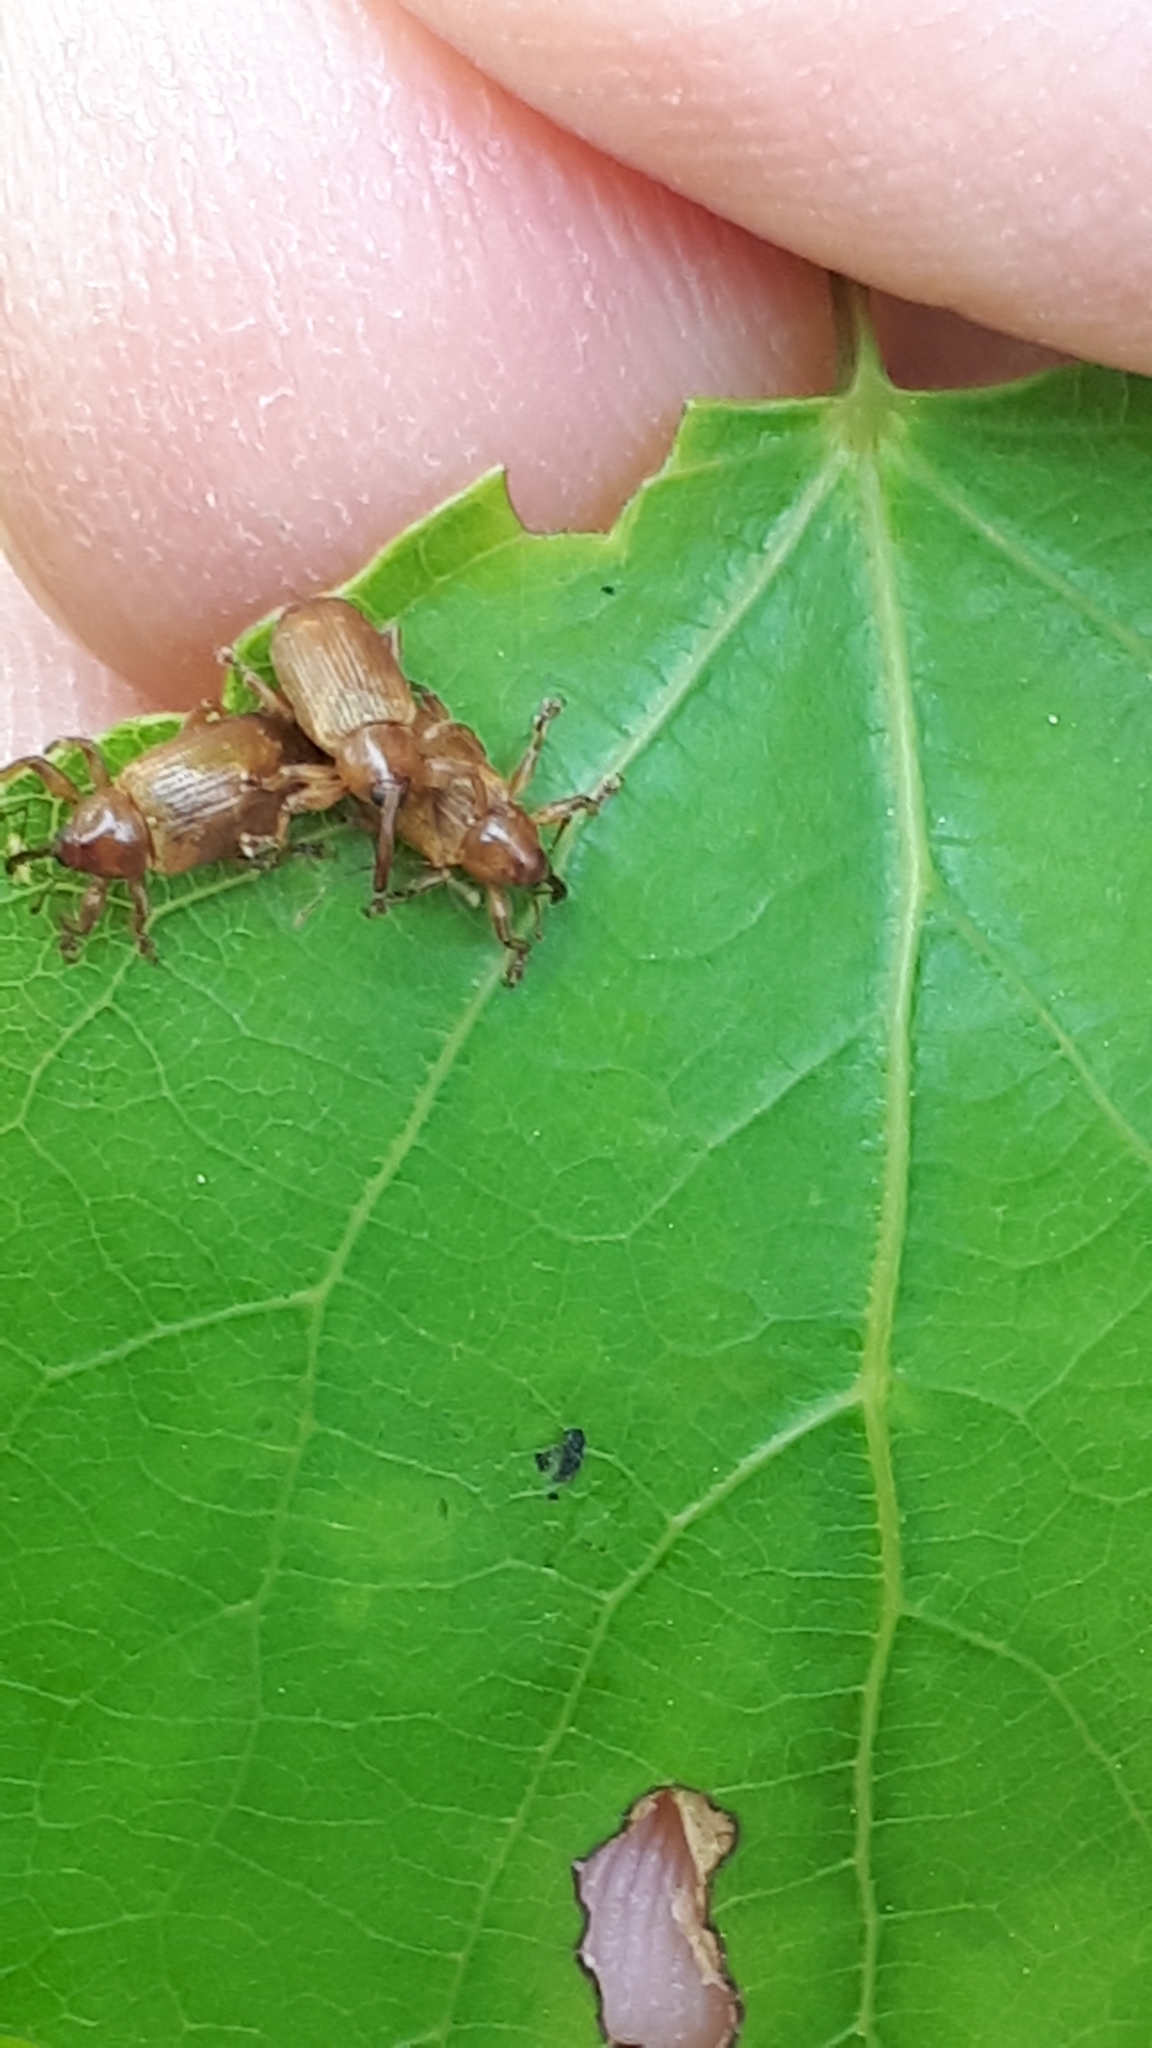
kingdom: Animalia
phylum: Arthropoda
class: Insecta
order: Coleoptera
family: Curculionidae
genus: Dorytomus
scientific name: Dorytomus tortrix
